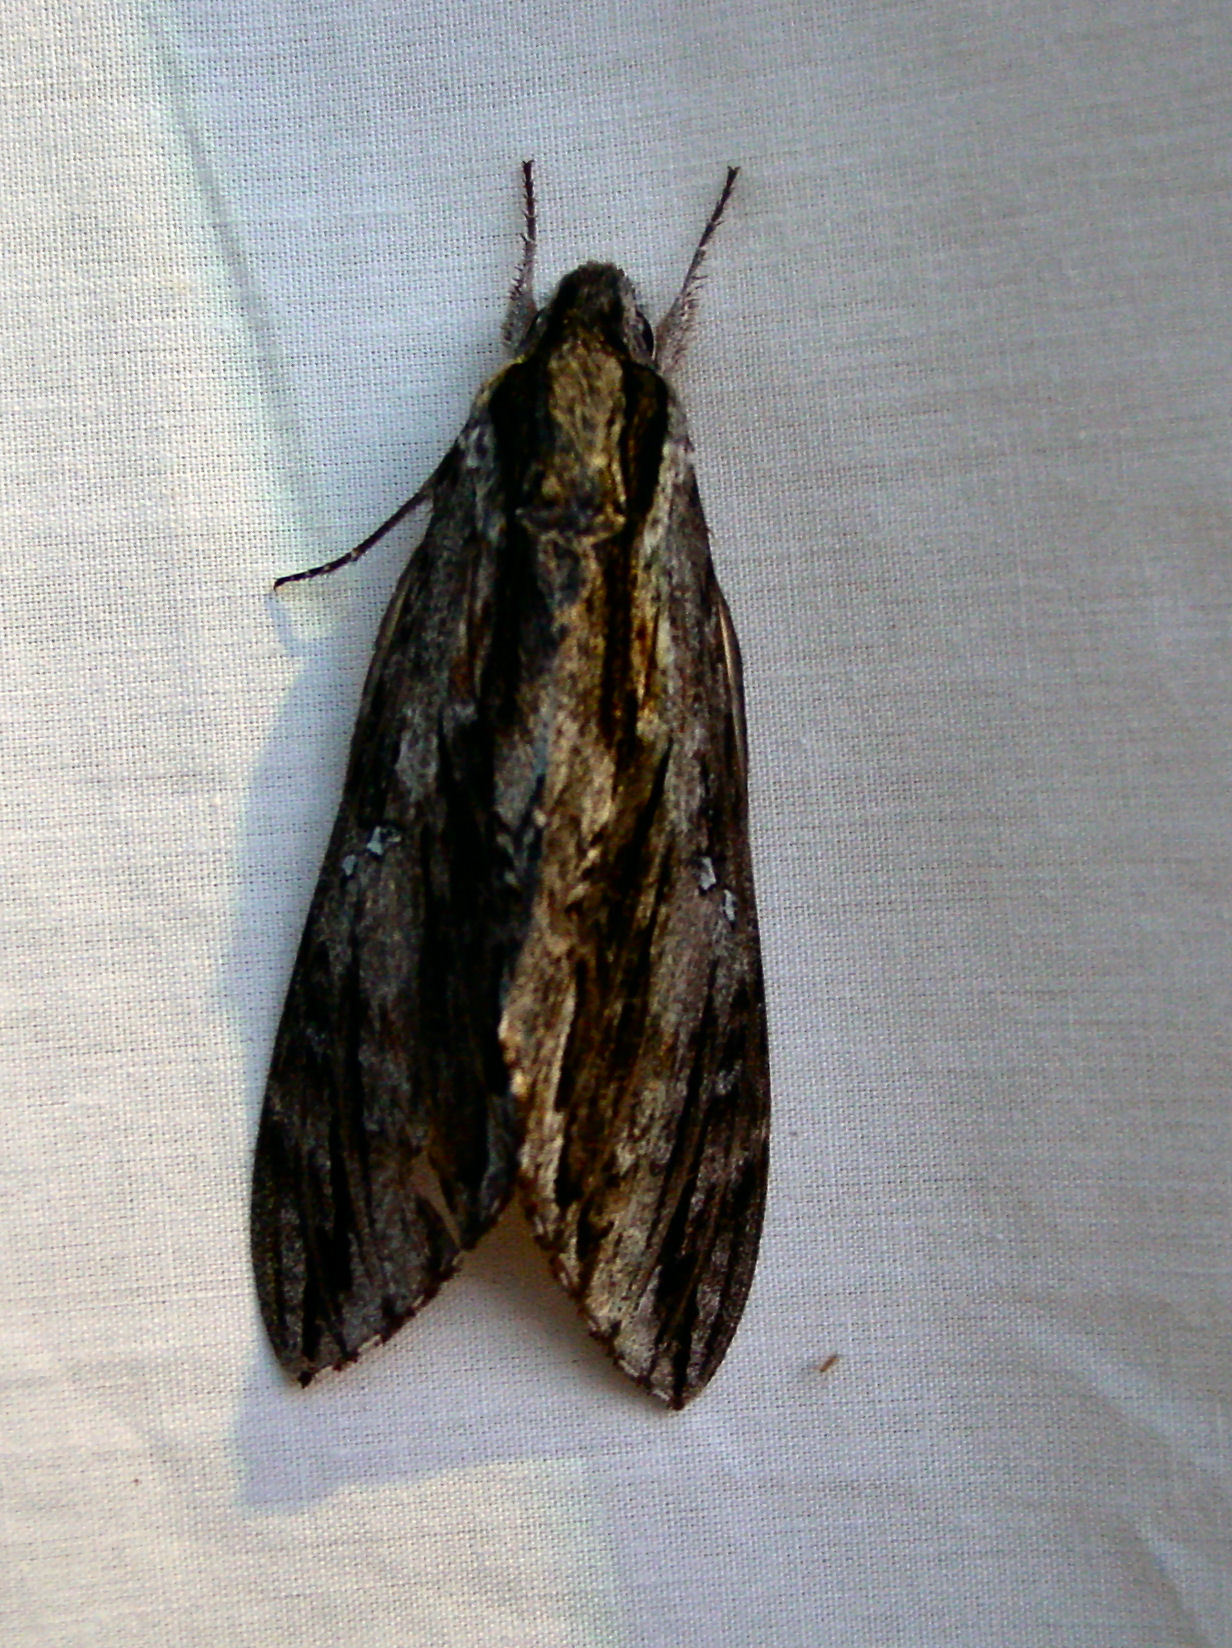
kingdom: Animalia
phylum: Arthropoda
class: Insecta
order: Lepidoptera
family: Sphingidae
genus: Lintneria
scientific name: Lintneria istar
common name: Istar sphinx
